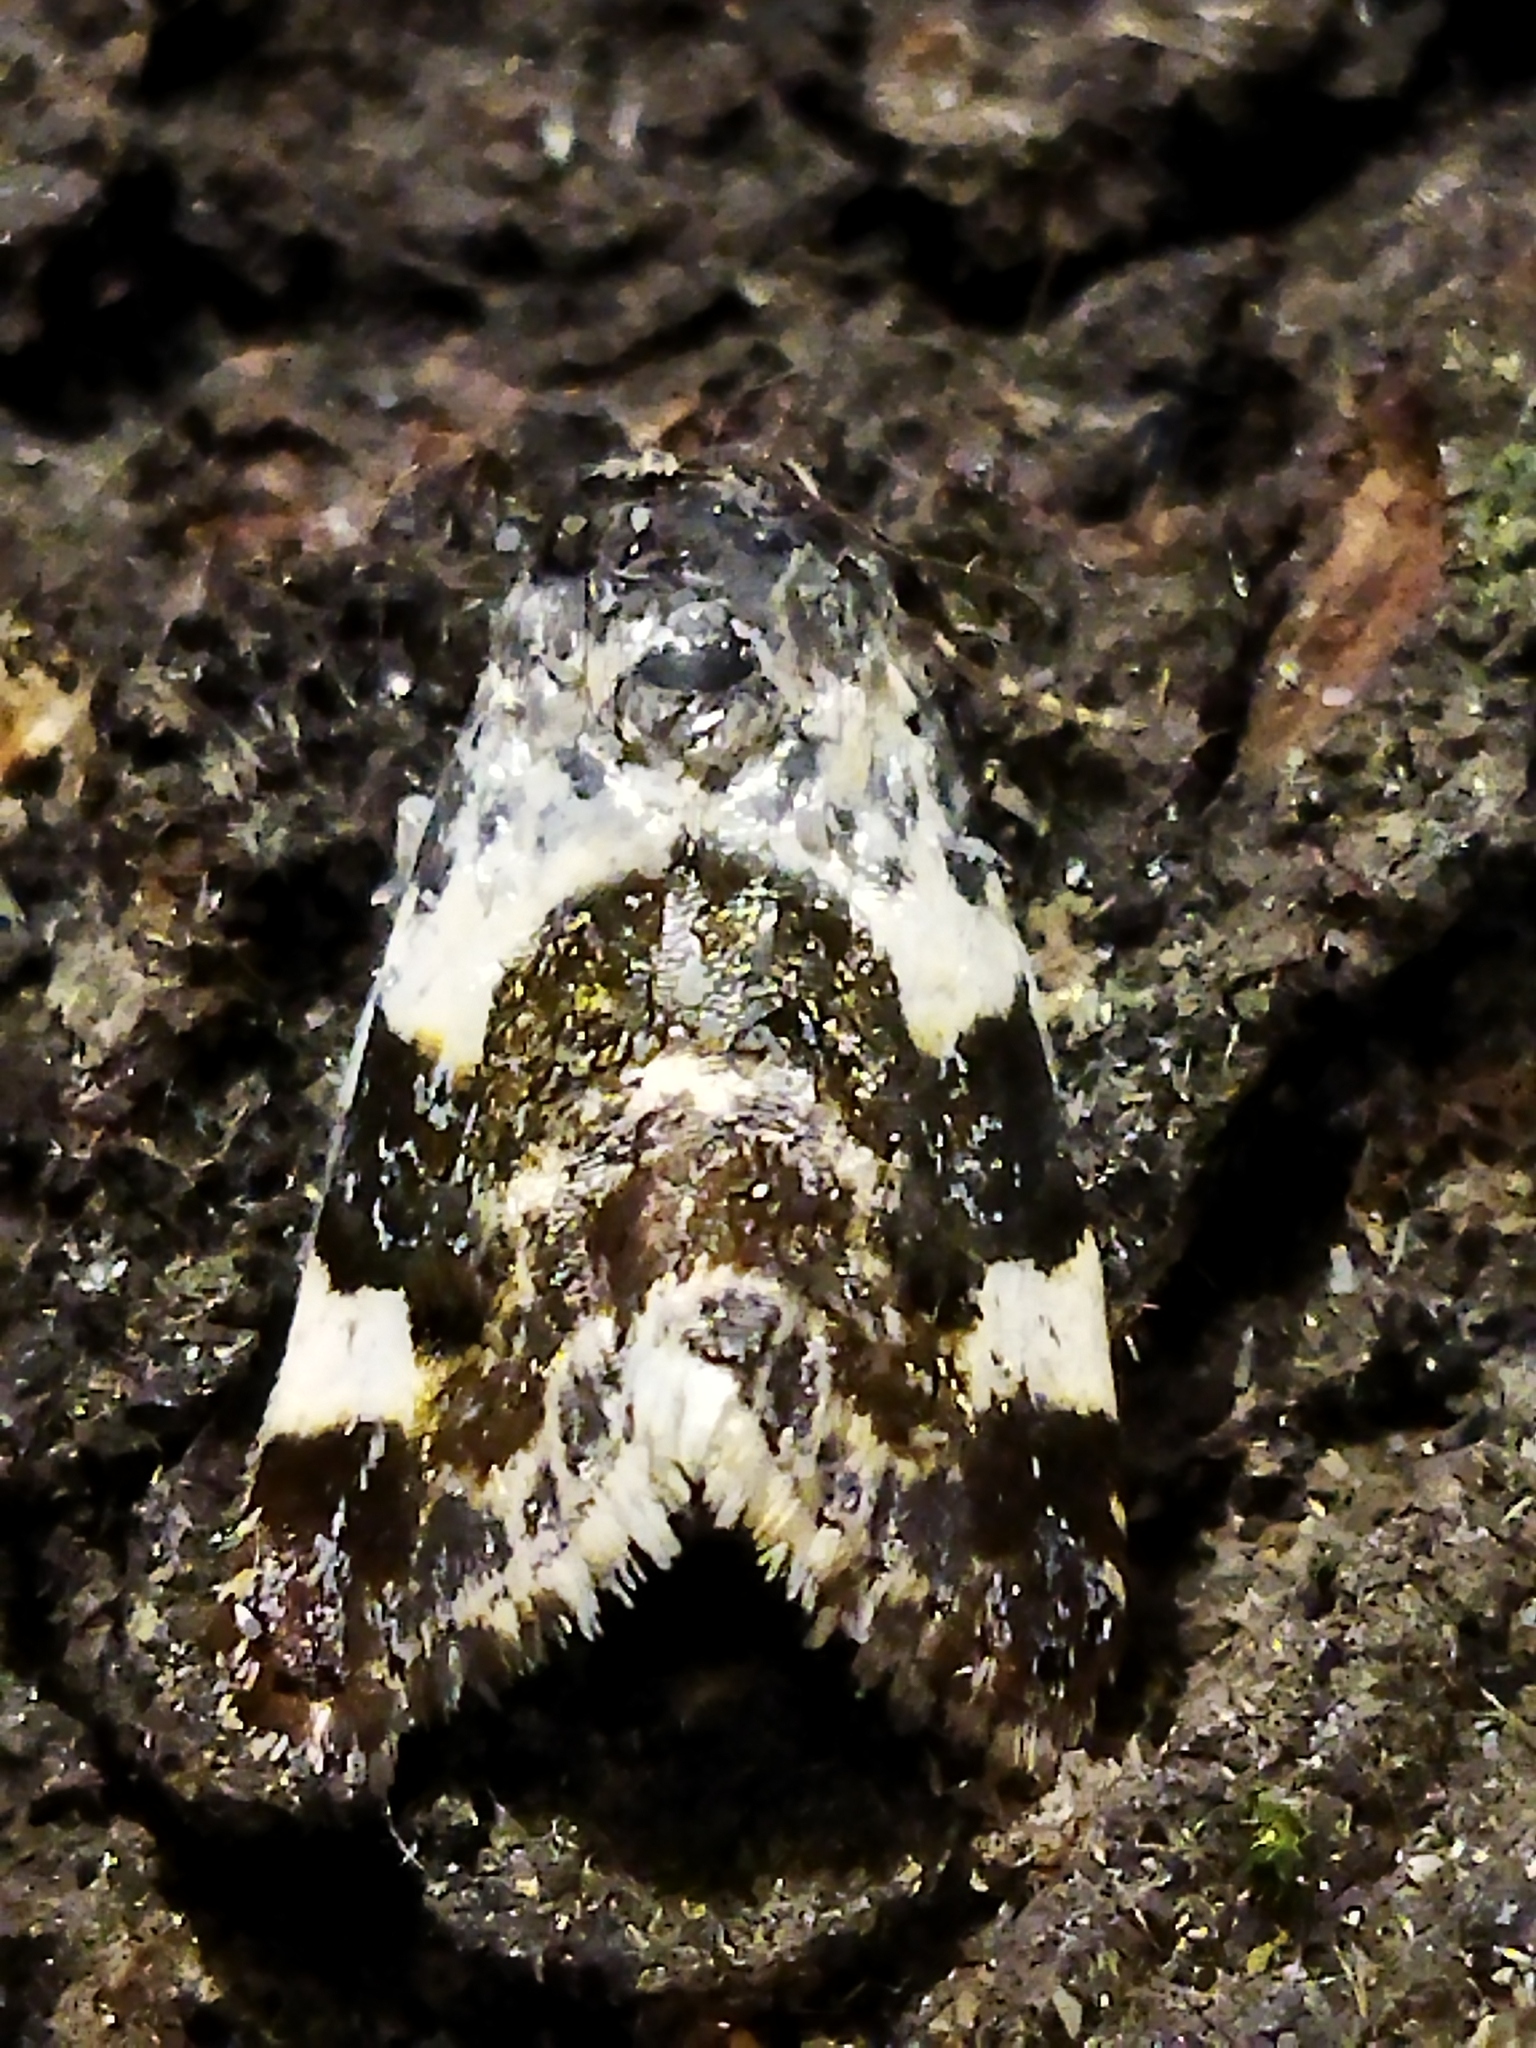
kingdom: Animalia
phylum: Arthropoda
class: Insecta
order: Lepidoptera
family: Noctuidae
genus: Acontia
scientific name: Acontia lucida
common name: Pale shoulder
